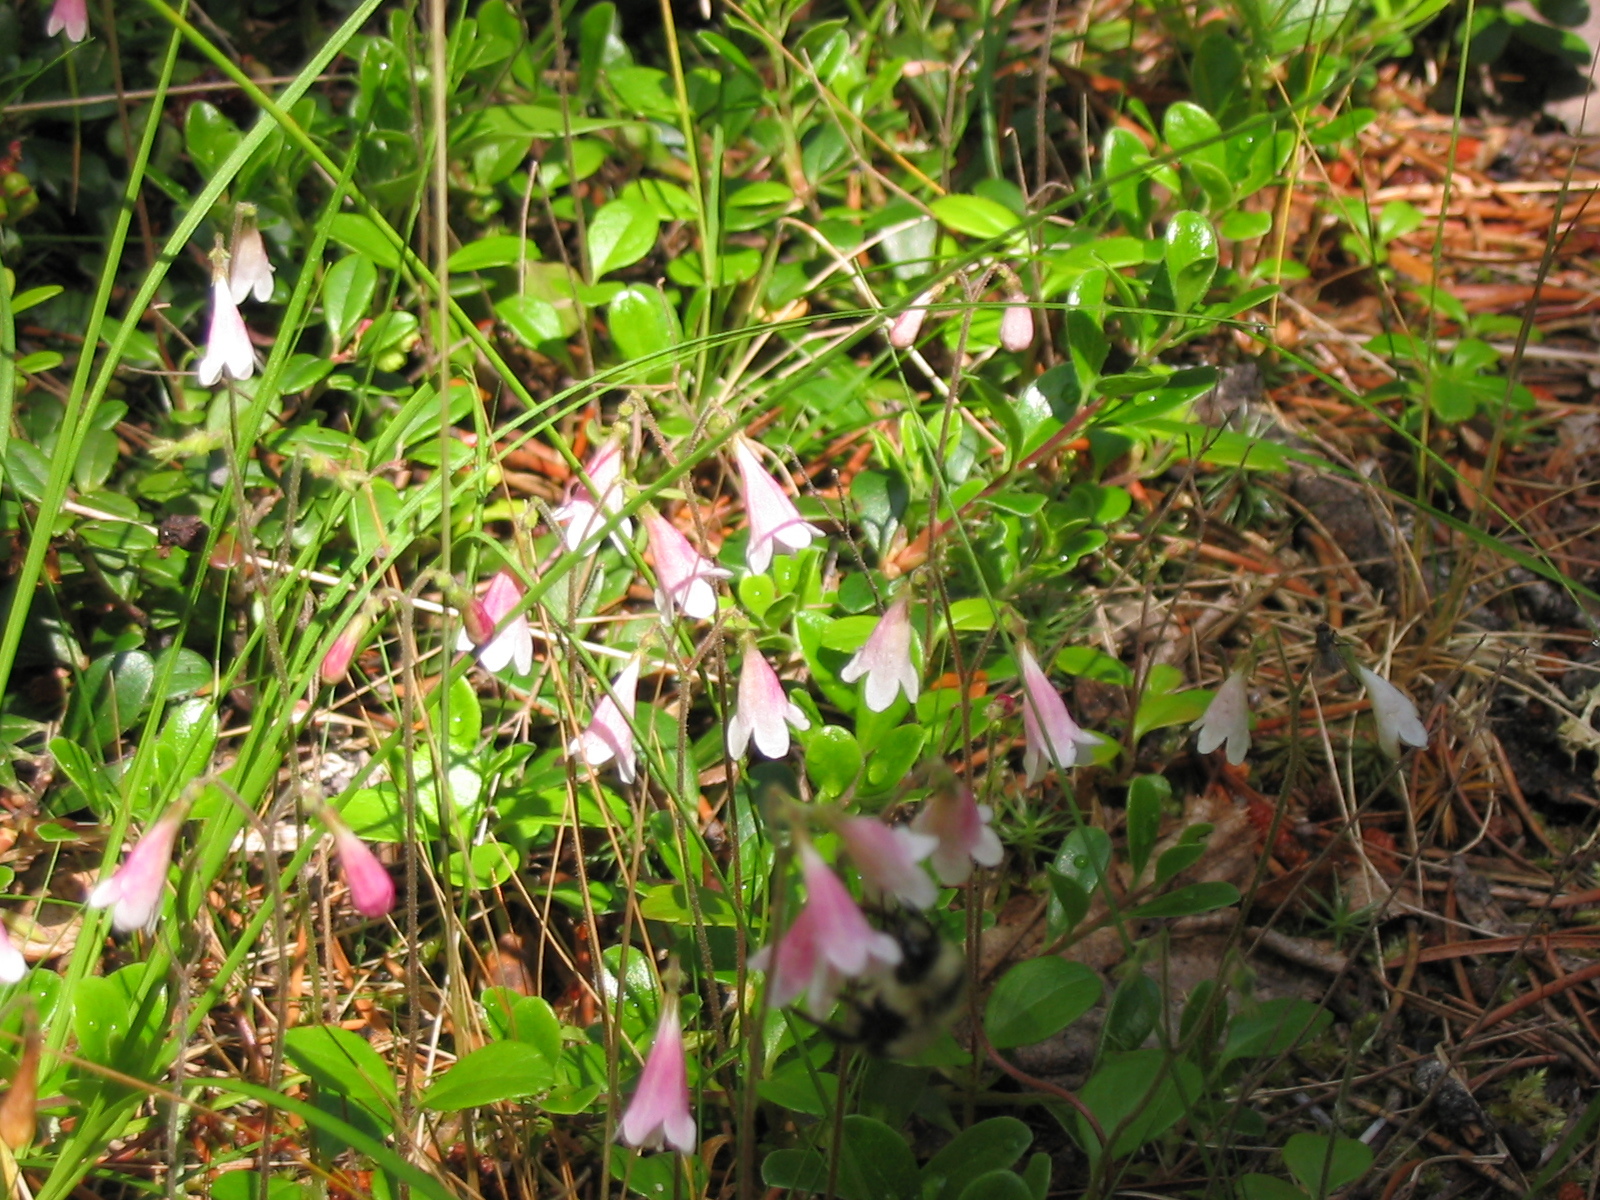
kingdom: Plantae
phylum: Tracheophyta
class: Magnoliopsida
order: Dipsacales
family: Caprifoliaceae
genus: Linnaea
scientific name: Linnaea borealis
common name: Twinflower
